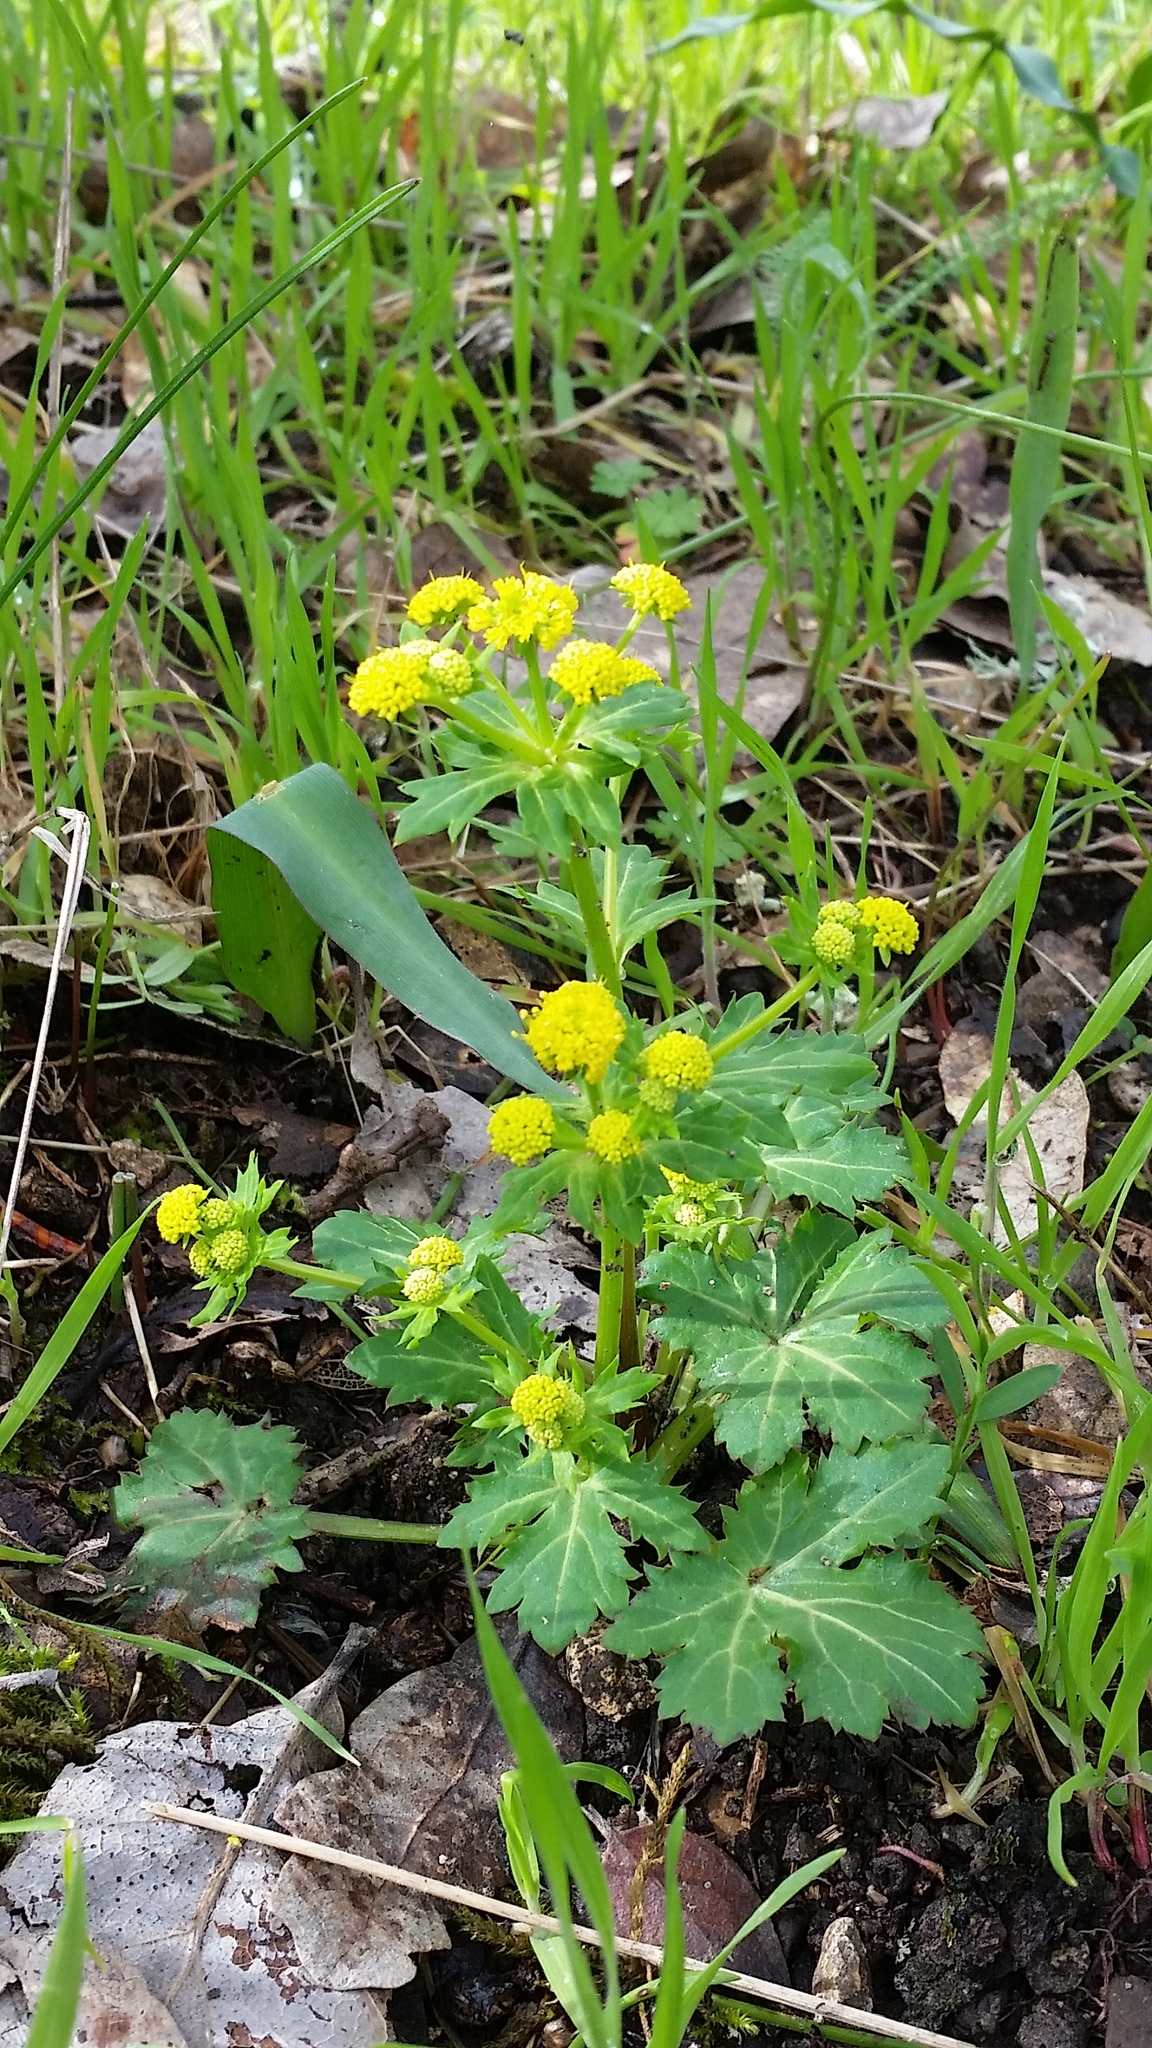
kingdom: Plantae
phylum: Tracheophyta
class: Magnoliopsida
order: Apiales
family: Apiaceae
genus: Sanicula
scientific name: Sanicula crassicaulis
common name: Western snakeroot
